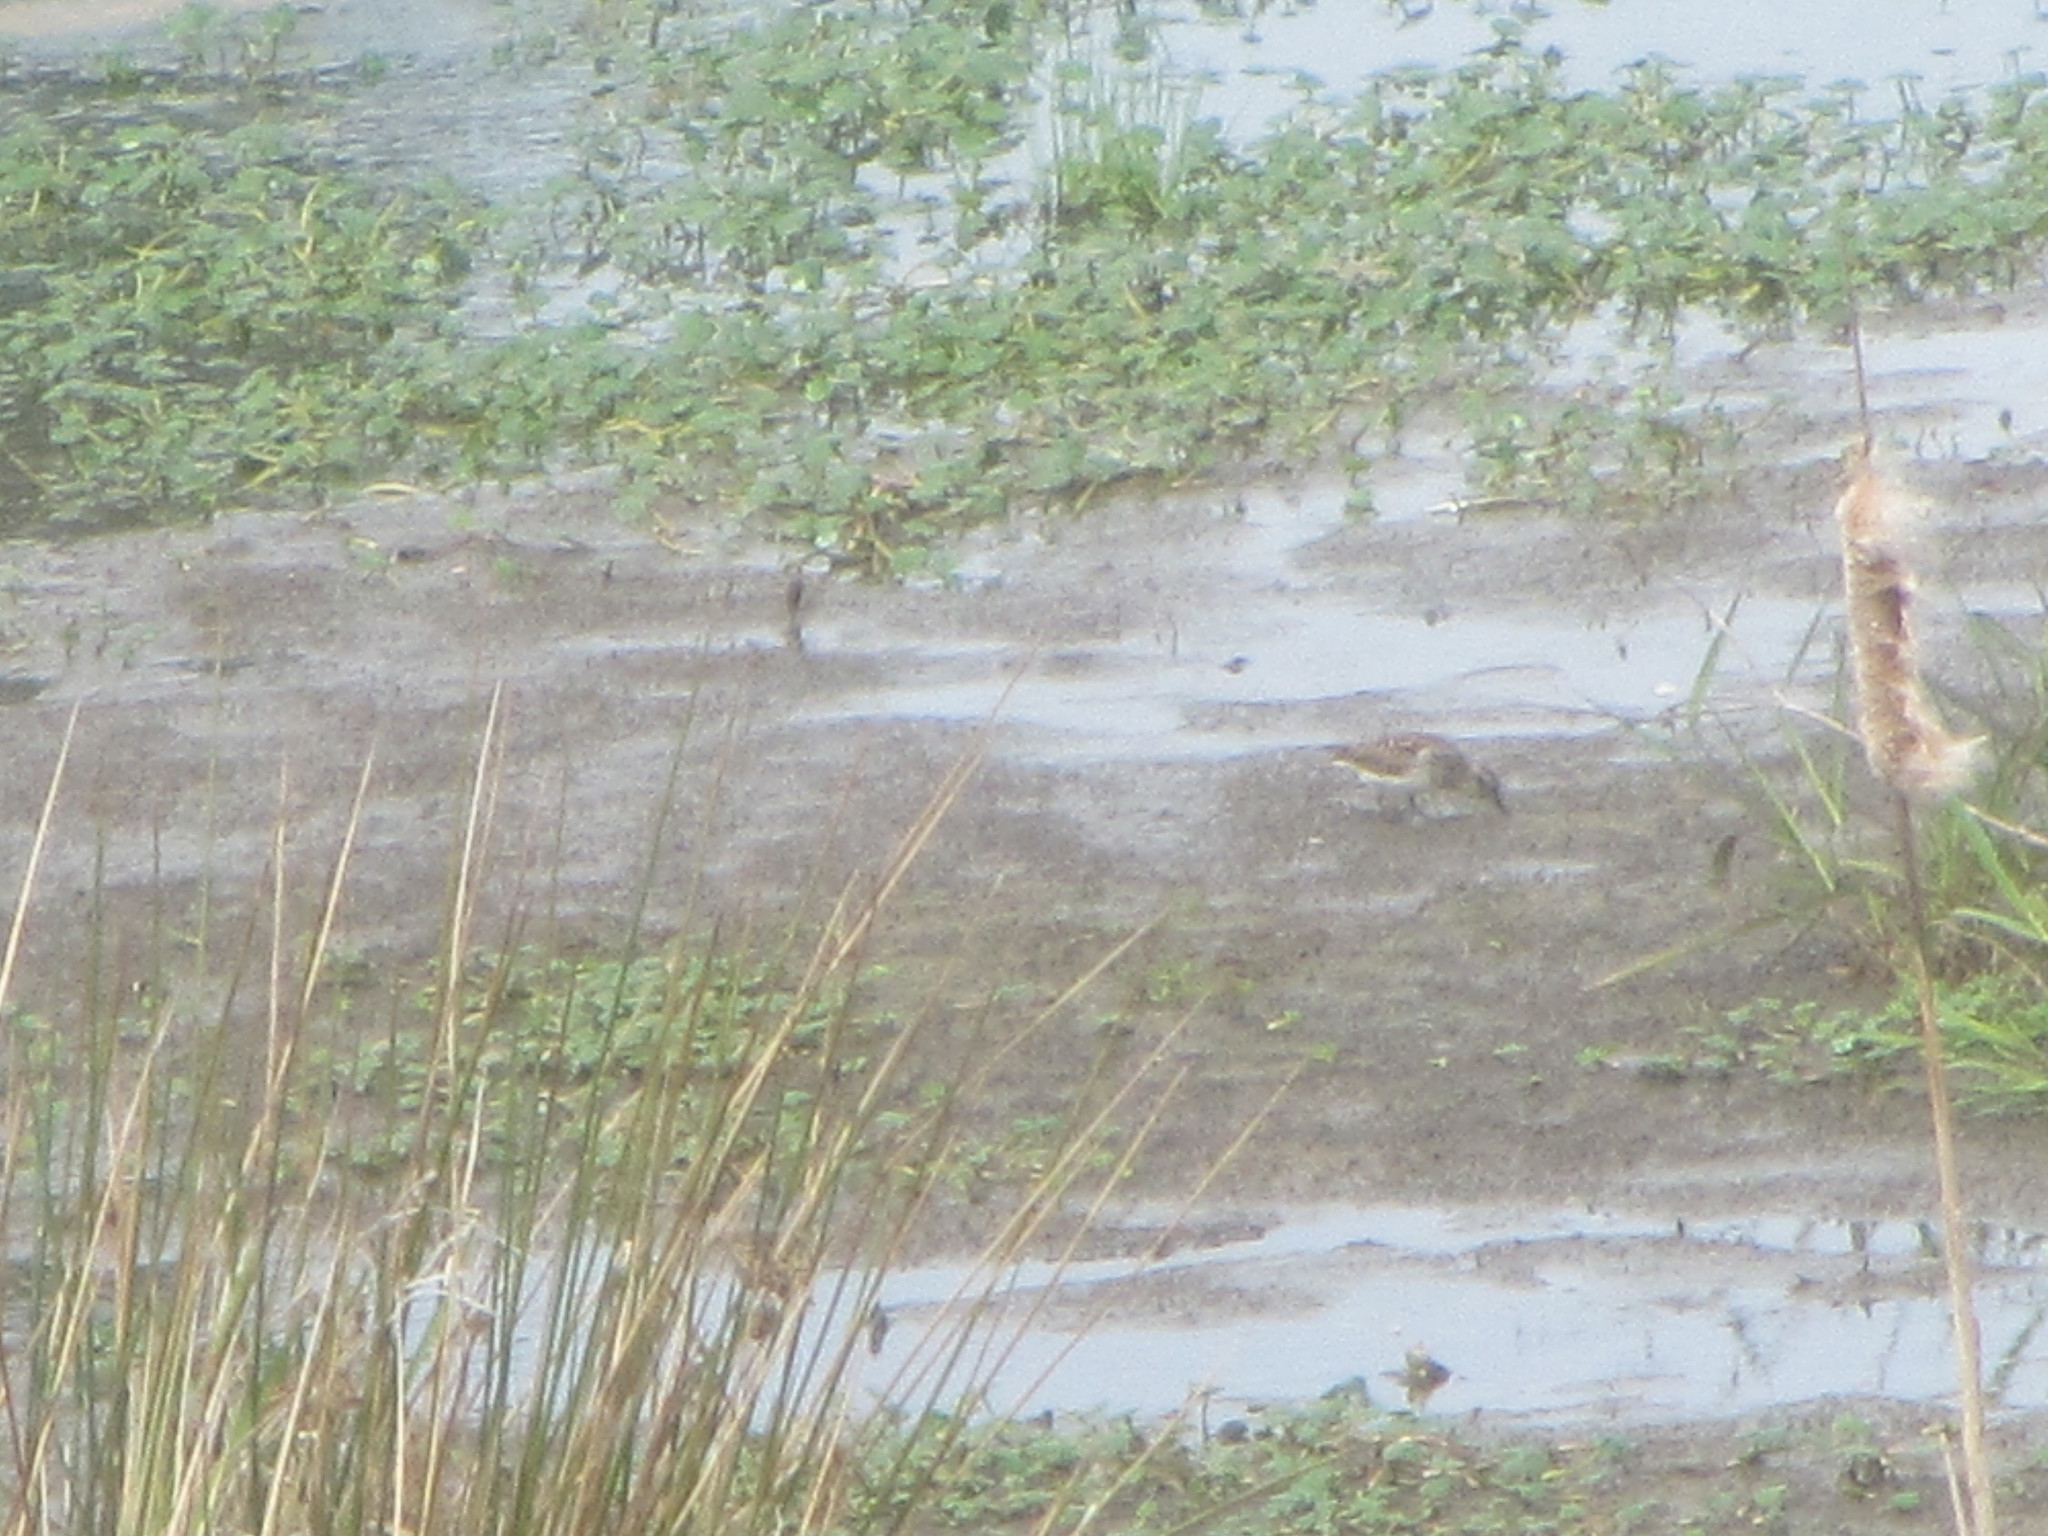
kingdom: Animalia
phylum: Chordata
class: Aves
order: Charadriiformes
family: Scolopacidae
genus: Calidris
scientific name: Calidris minutilla
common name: Least sandpiper
